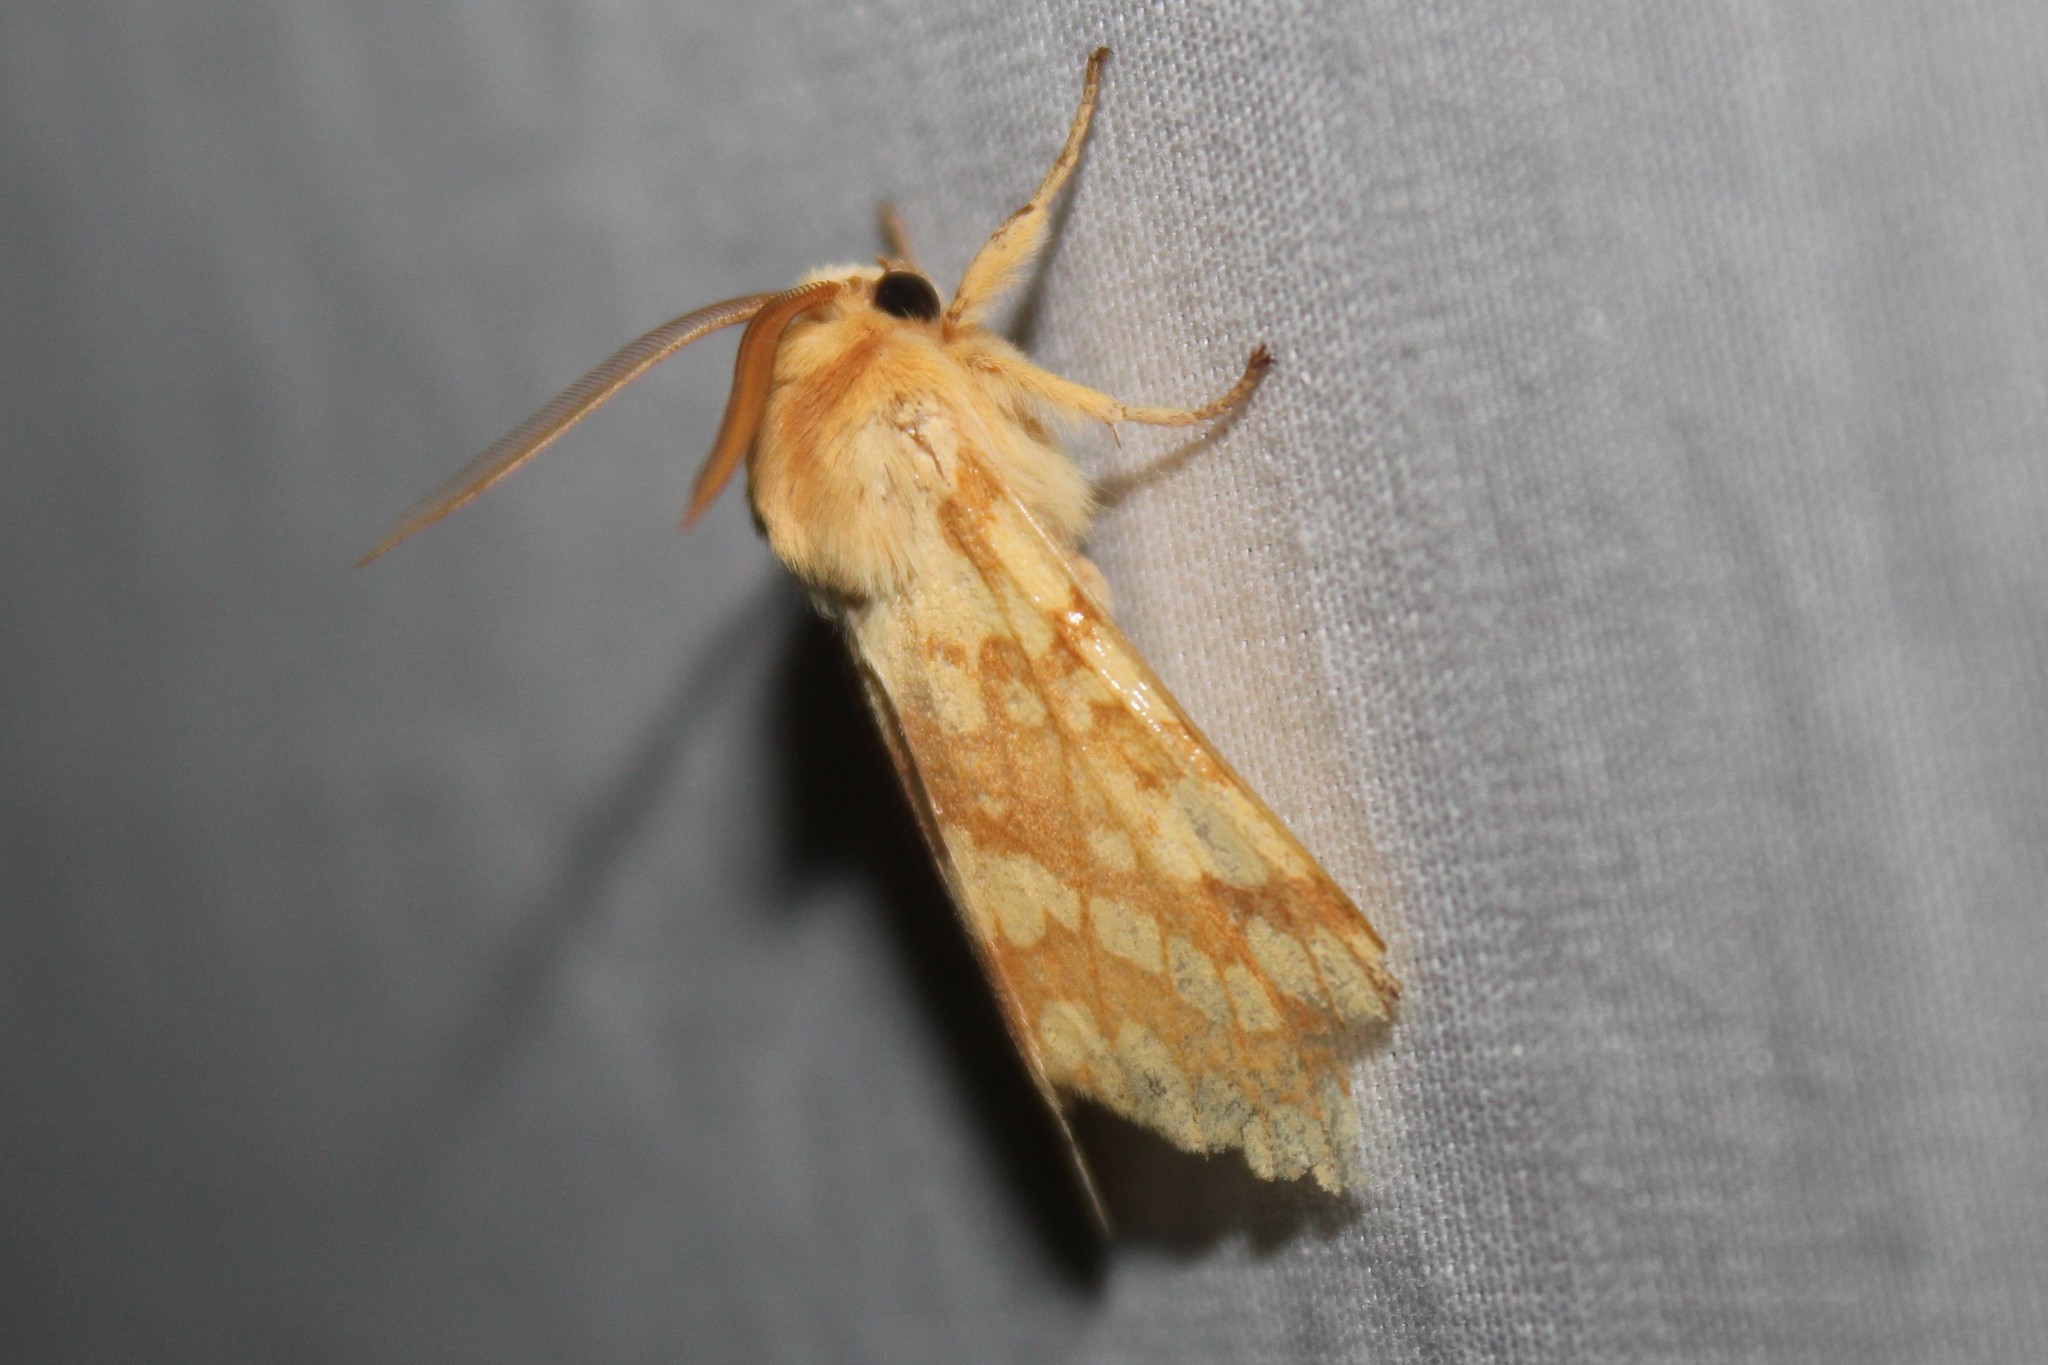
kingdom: Animalia
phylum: Arthropoda
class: Insecta
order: Lepidoptera
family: Erebidae
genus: Lophocampa
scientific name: Lophocampa maculata
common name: Spotted tussock moth
